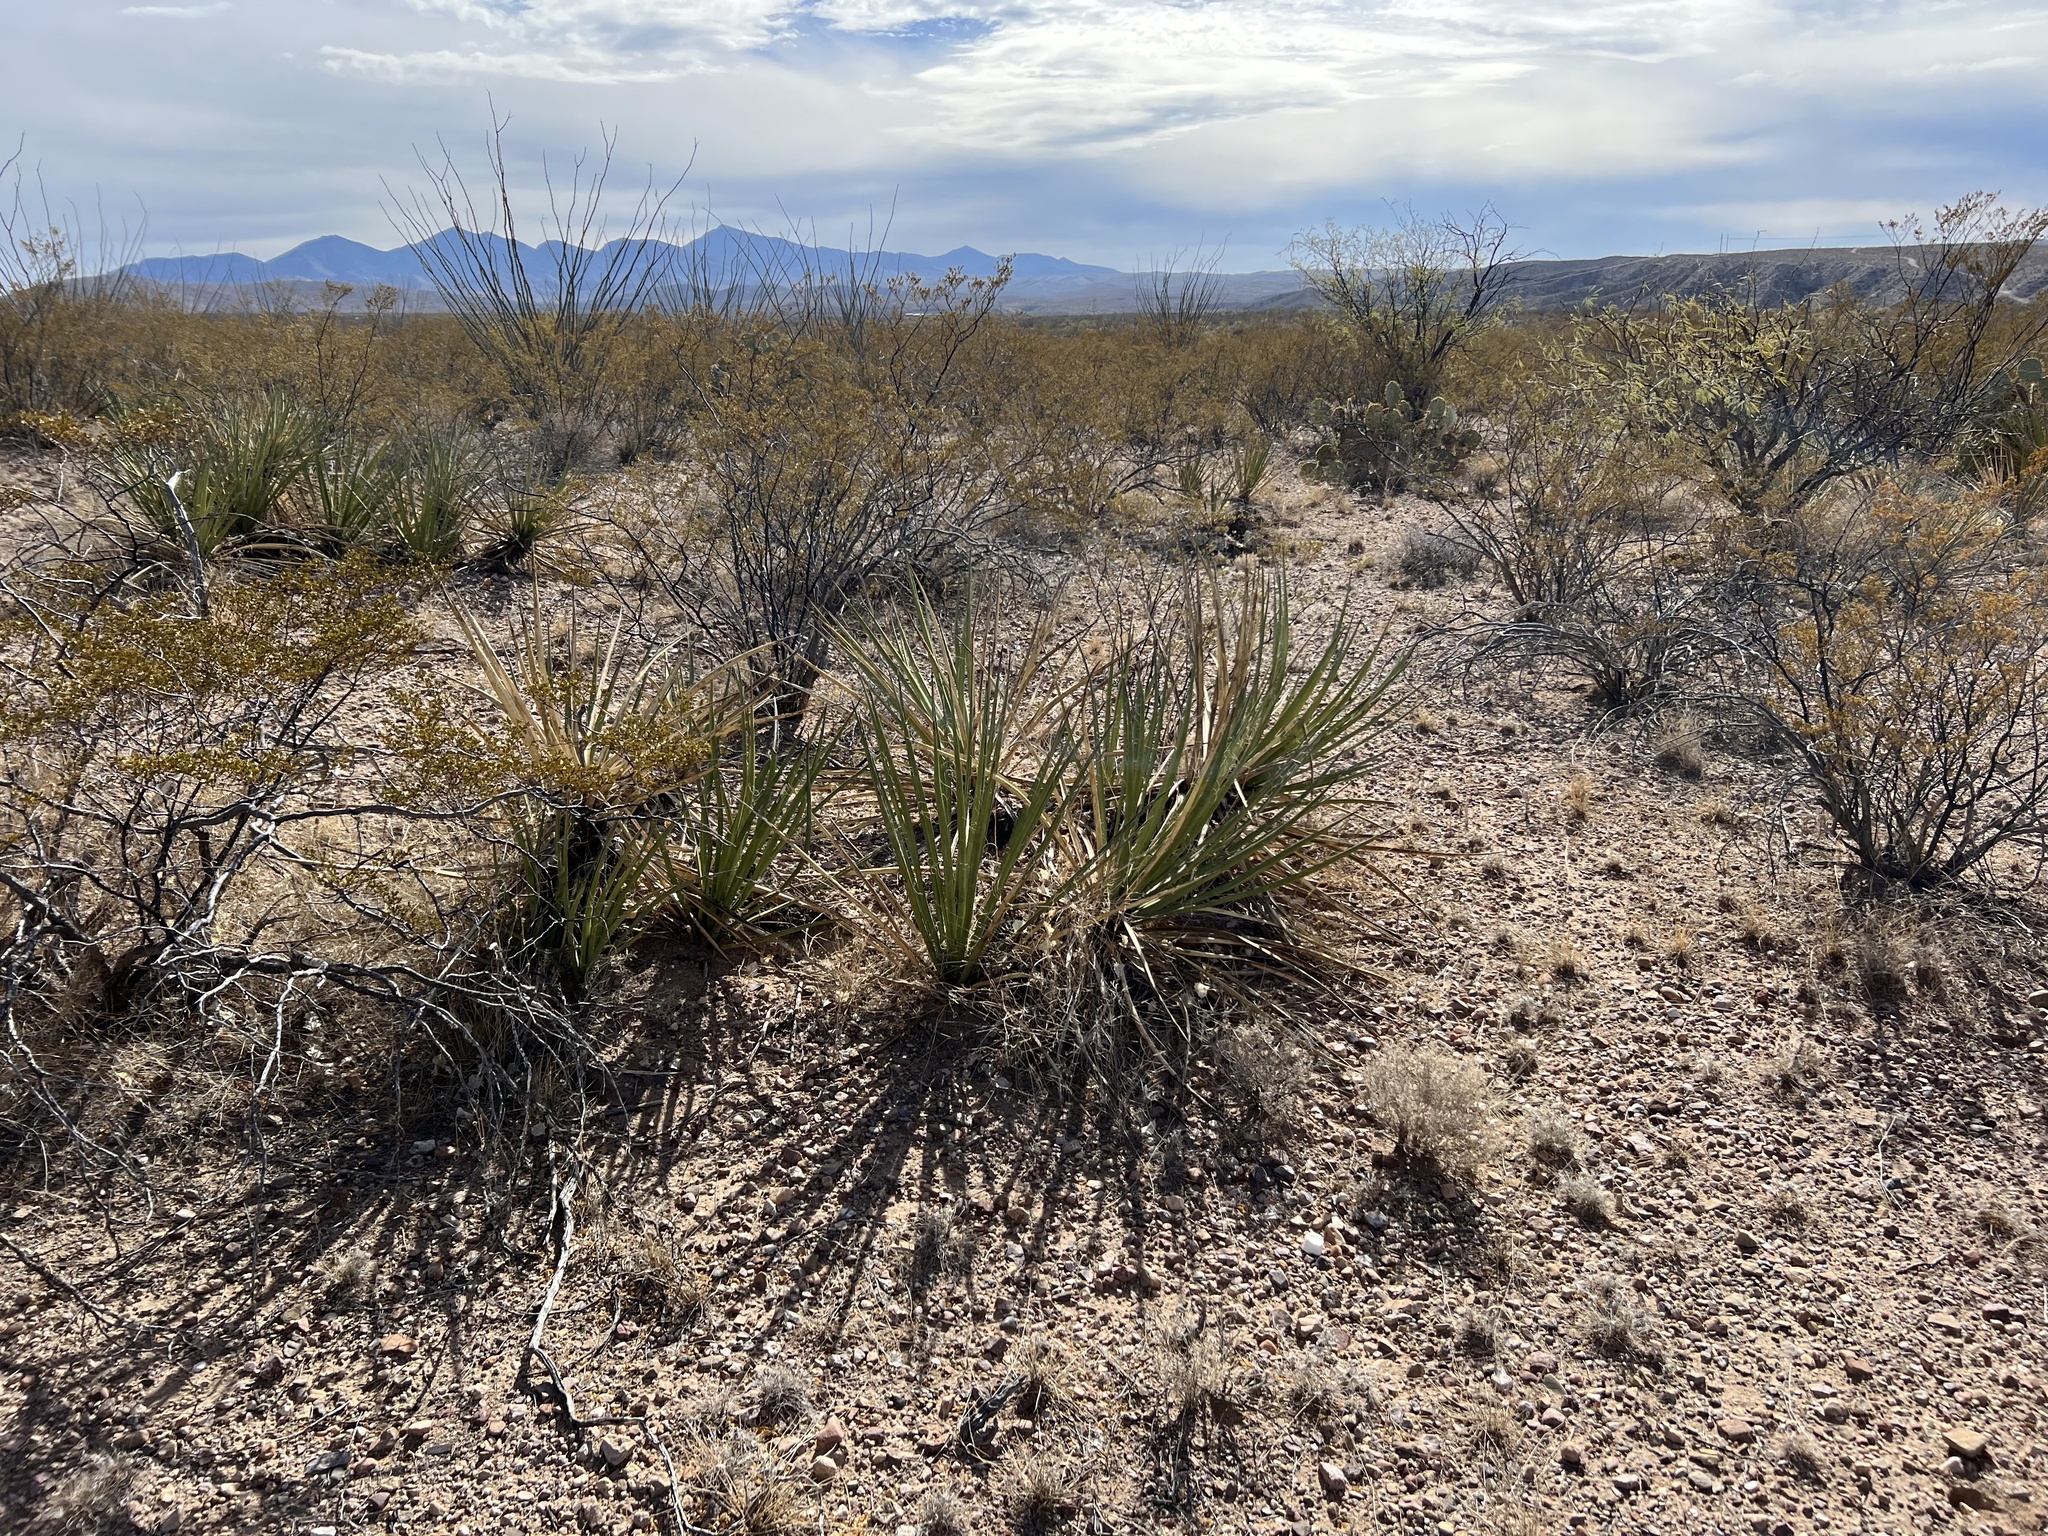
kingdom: Plantae
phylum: Tracheophyta
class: Liliopsida
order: Asparagales
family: Asparagaceae
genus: Yucca
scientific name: Yucca baccata
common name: Banana yucca
